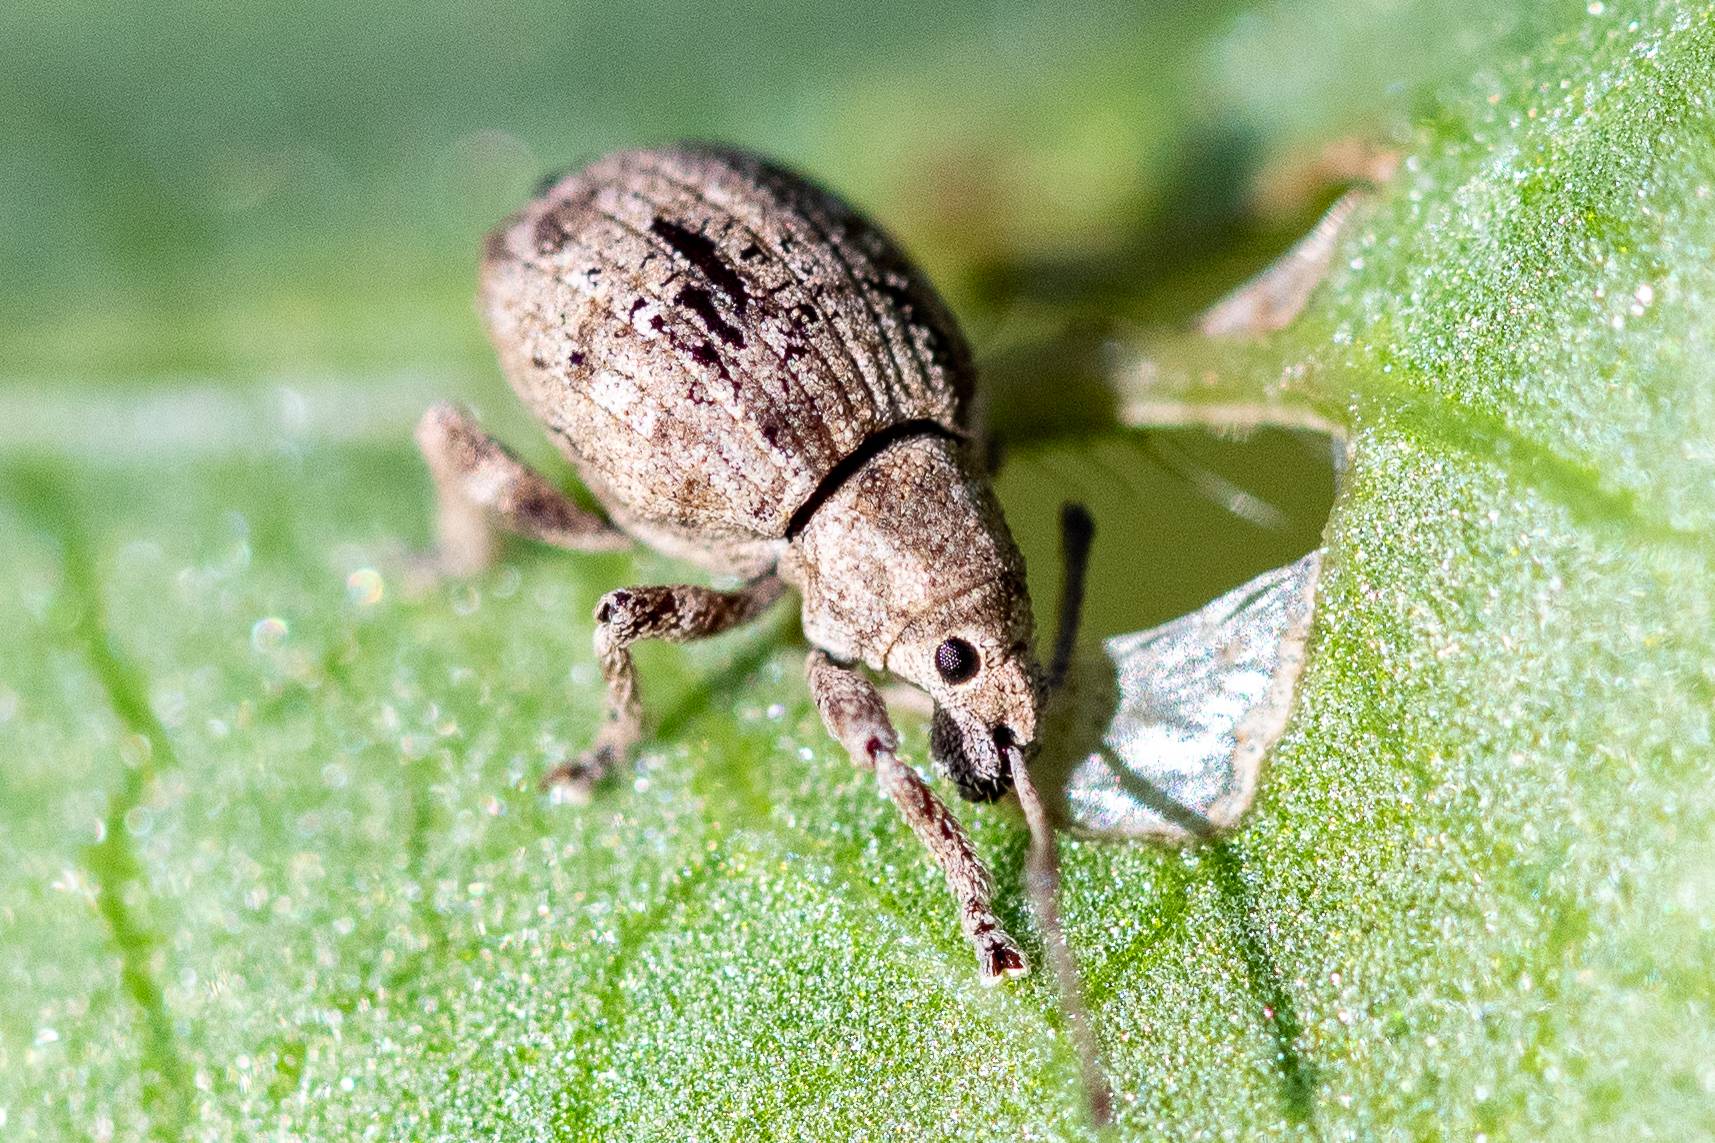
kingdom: Animalia
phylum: Arthropoda
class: Insecta
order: Coleoptera
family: Curculionidae
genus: Ellimenistes
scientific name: Ellimenistes laesicollis
